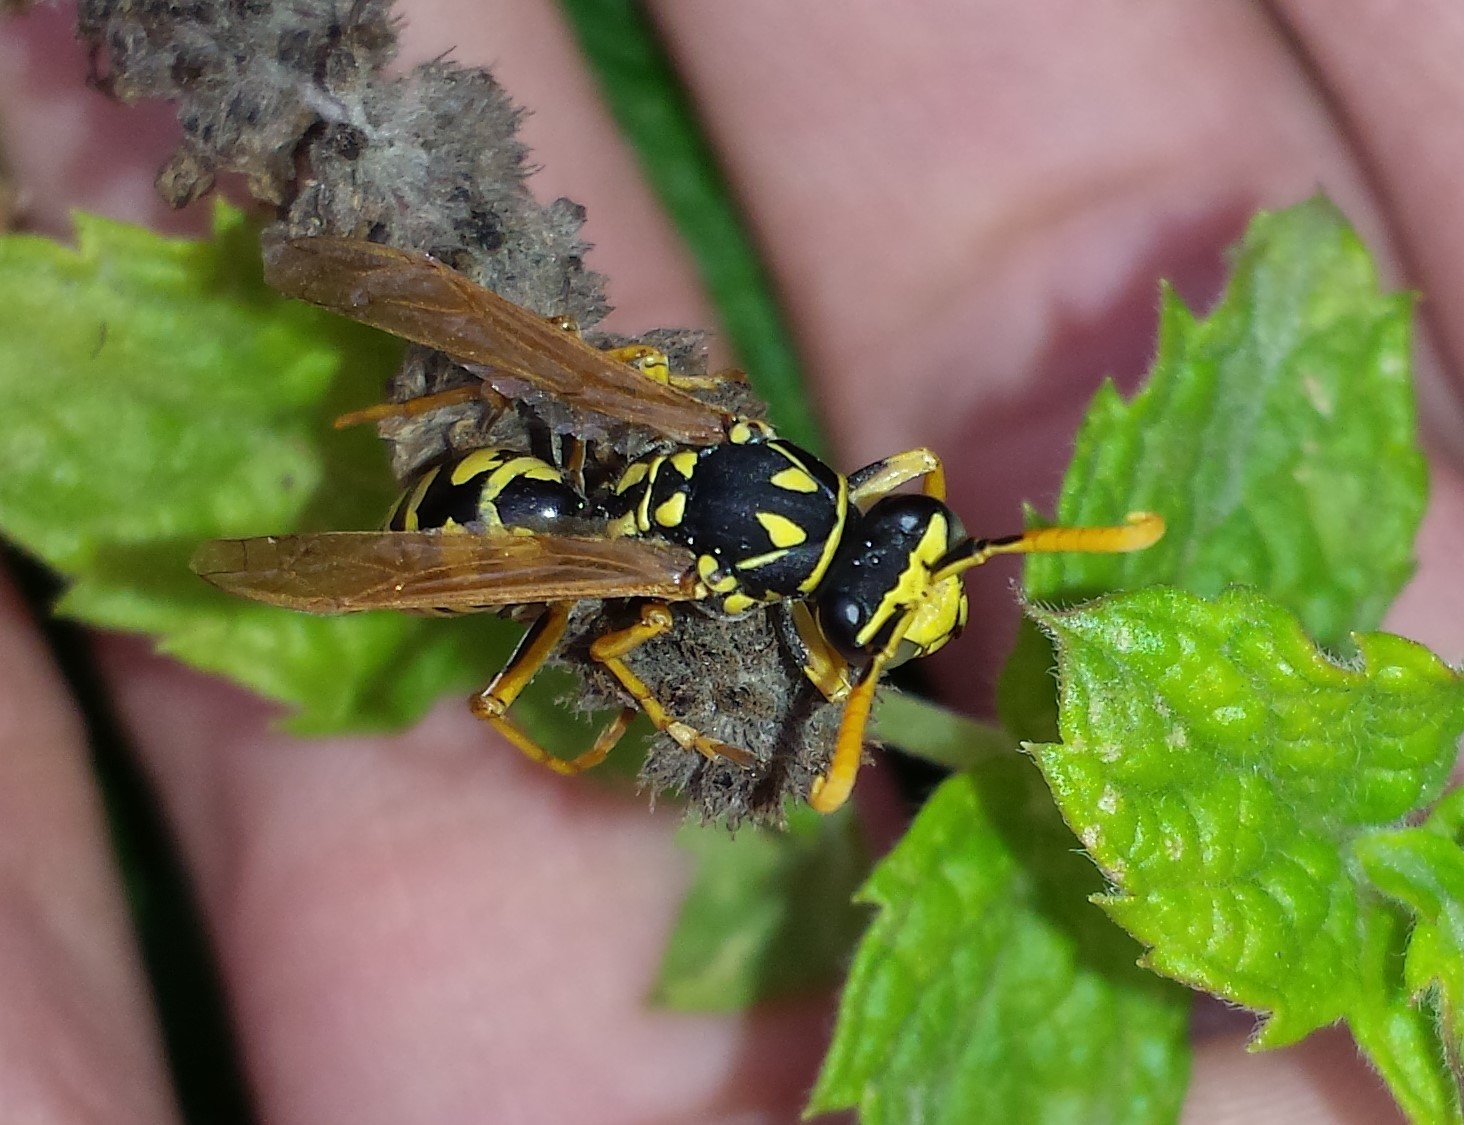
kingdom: Animalia
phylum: Arthropoda
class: Insecta
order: Hymenoptera
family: Eumenidae
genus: Polistes
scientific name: Polistes dominula
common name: Paper wasp
